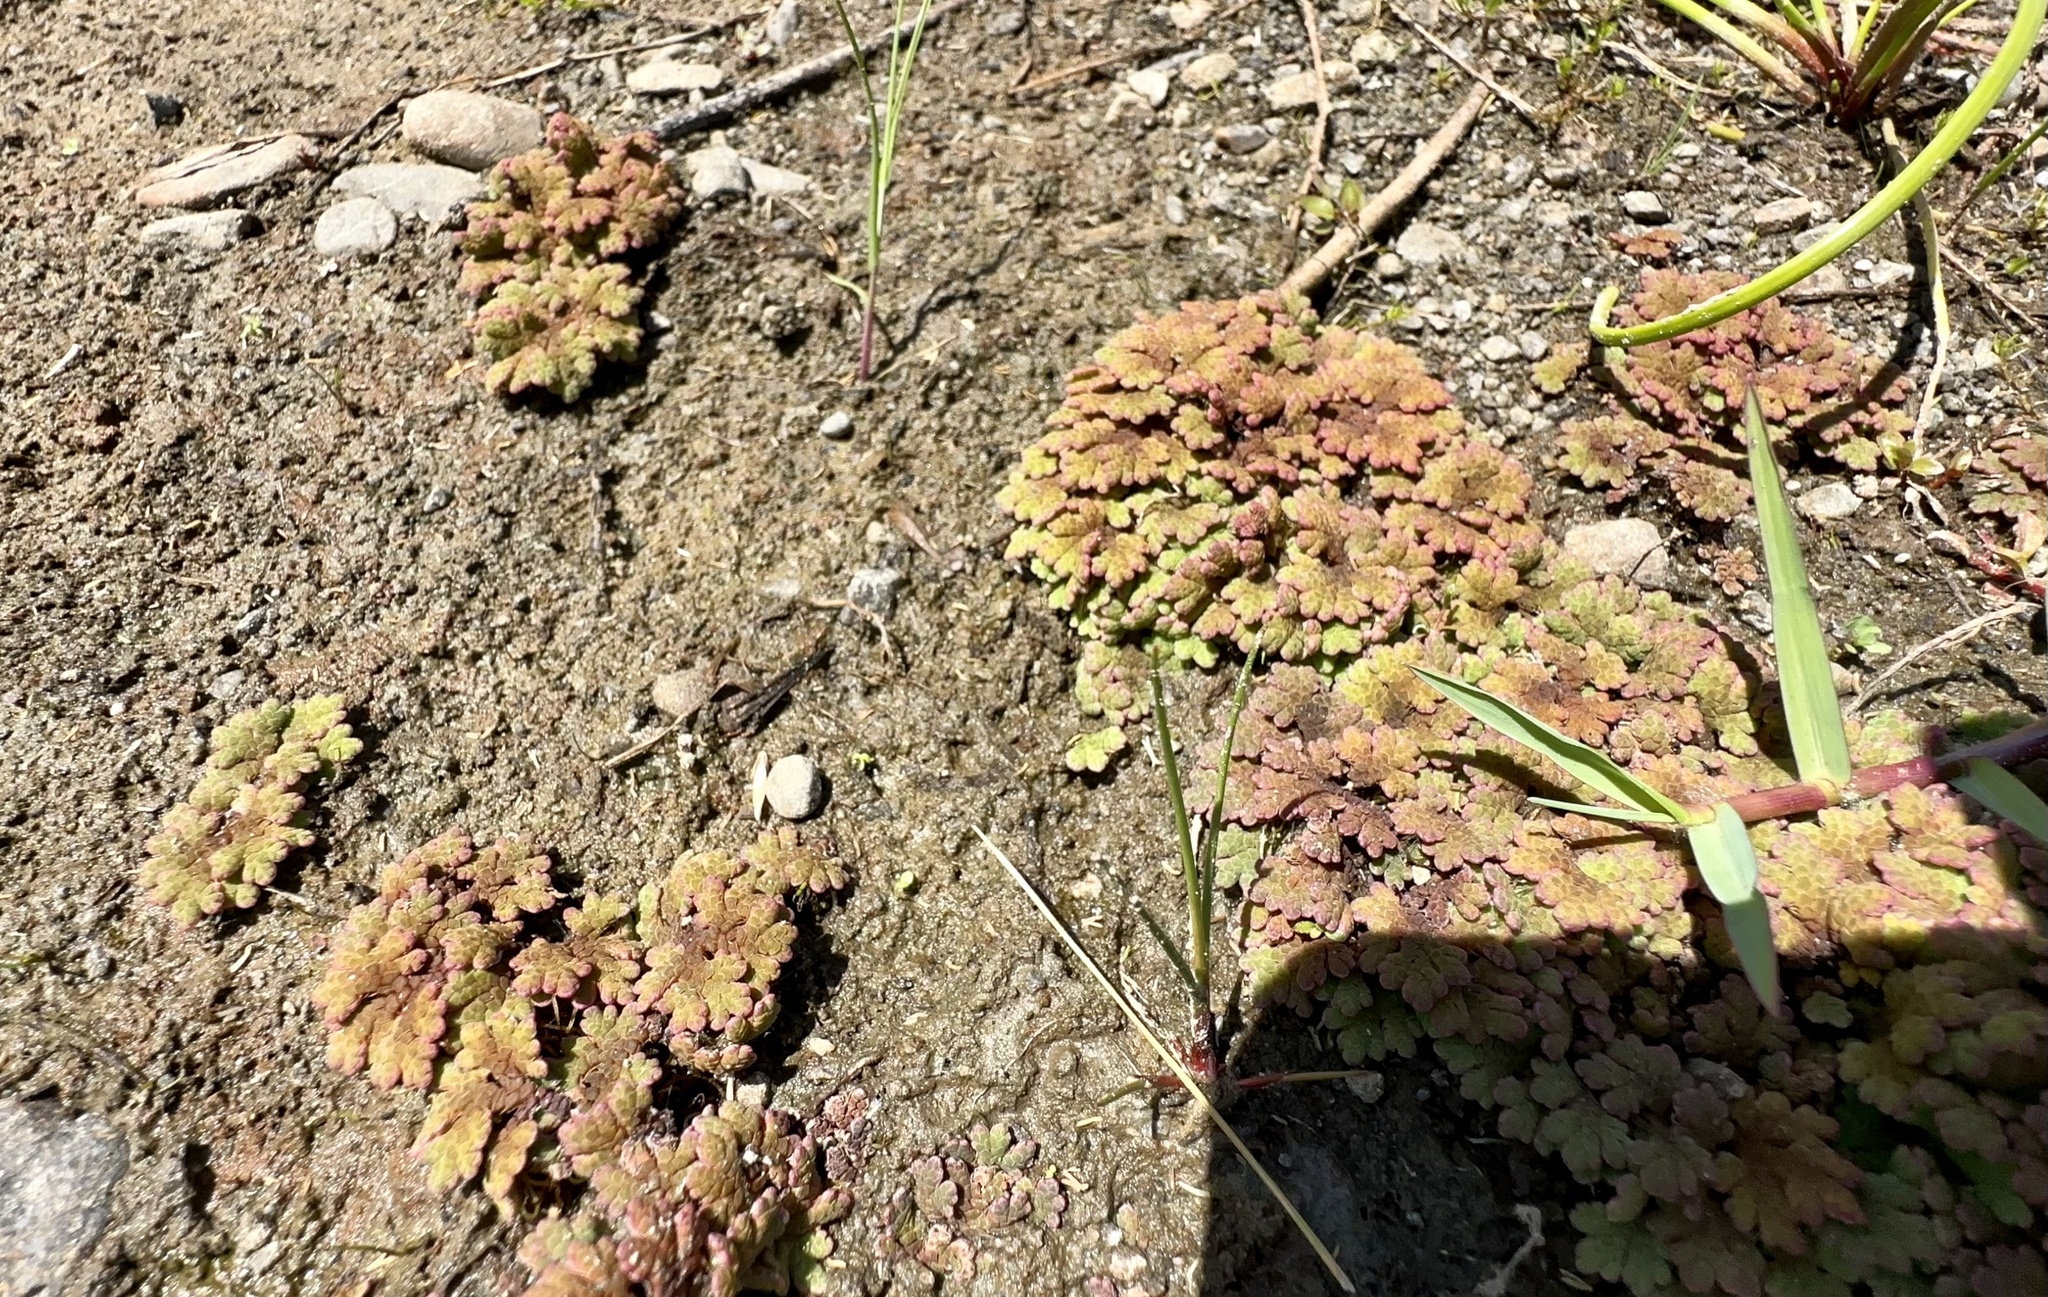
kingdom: Plantae
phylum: Tracheophyta
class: Polypodiopsida
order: Salviniales
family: Salviniaceae
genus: Azolla
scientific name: Azolla rubra
